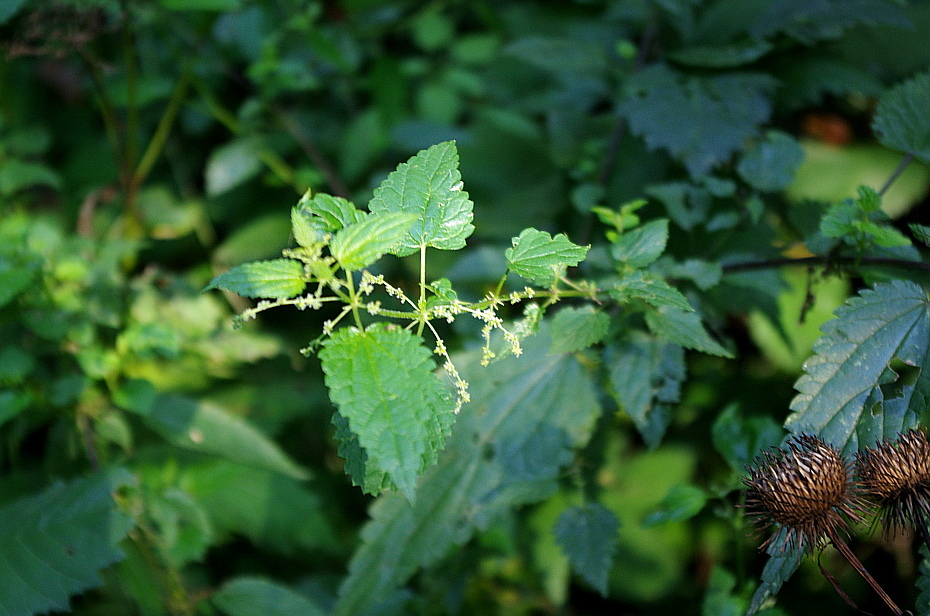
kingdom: Plantae
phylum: Tracheophyta
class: Magnoliopsida
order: Rosales
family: Urticaceae
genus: Urtica
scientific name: Urtica dioica
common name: Common nettle
